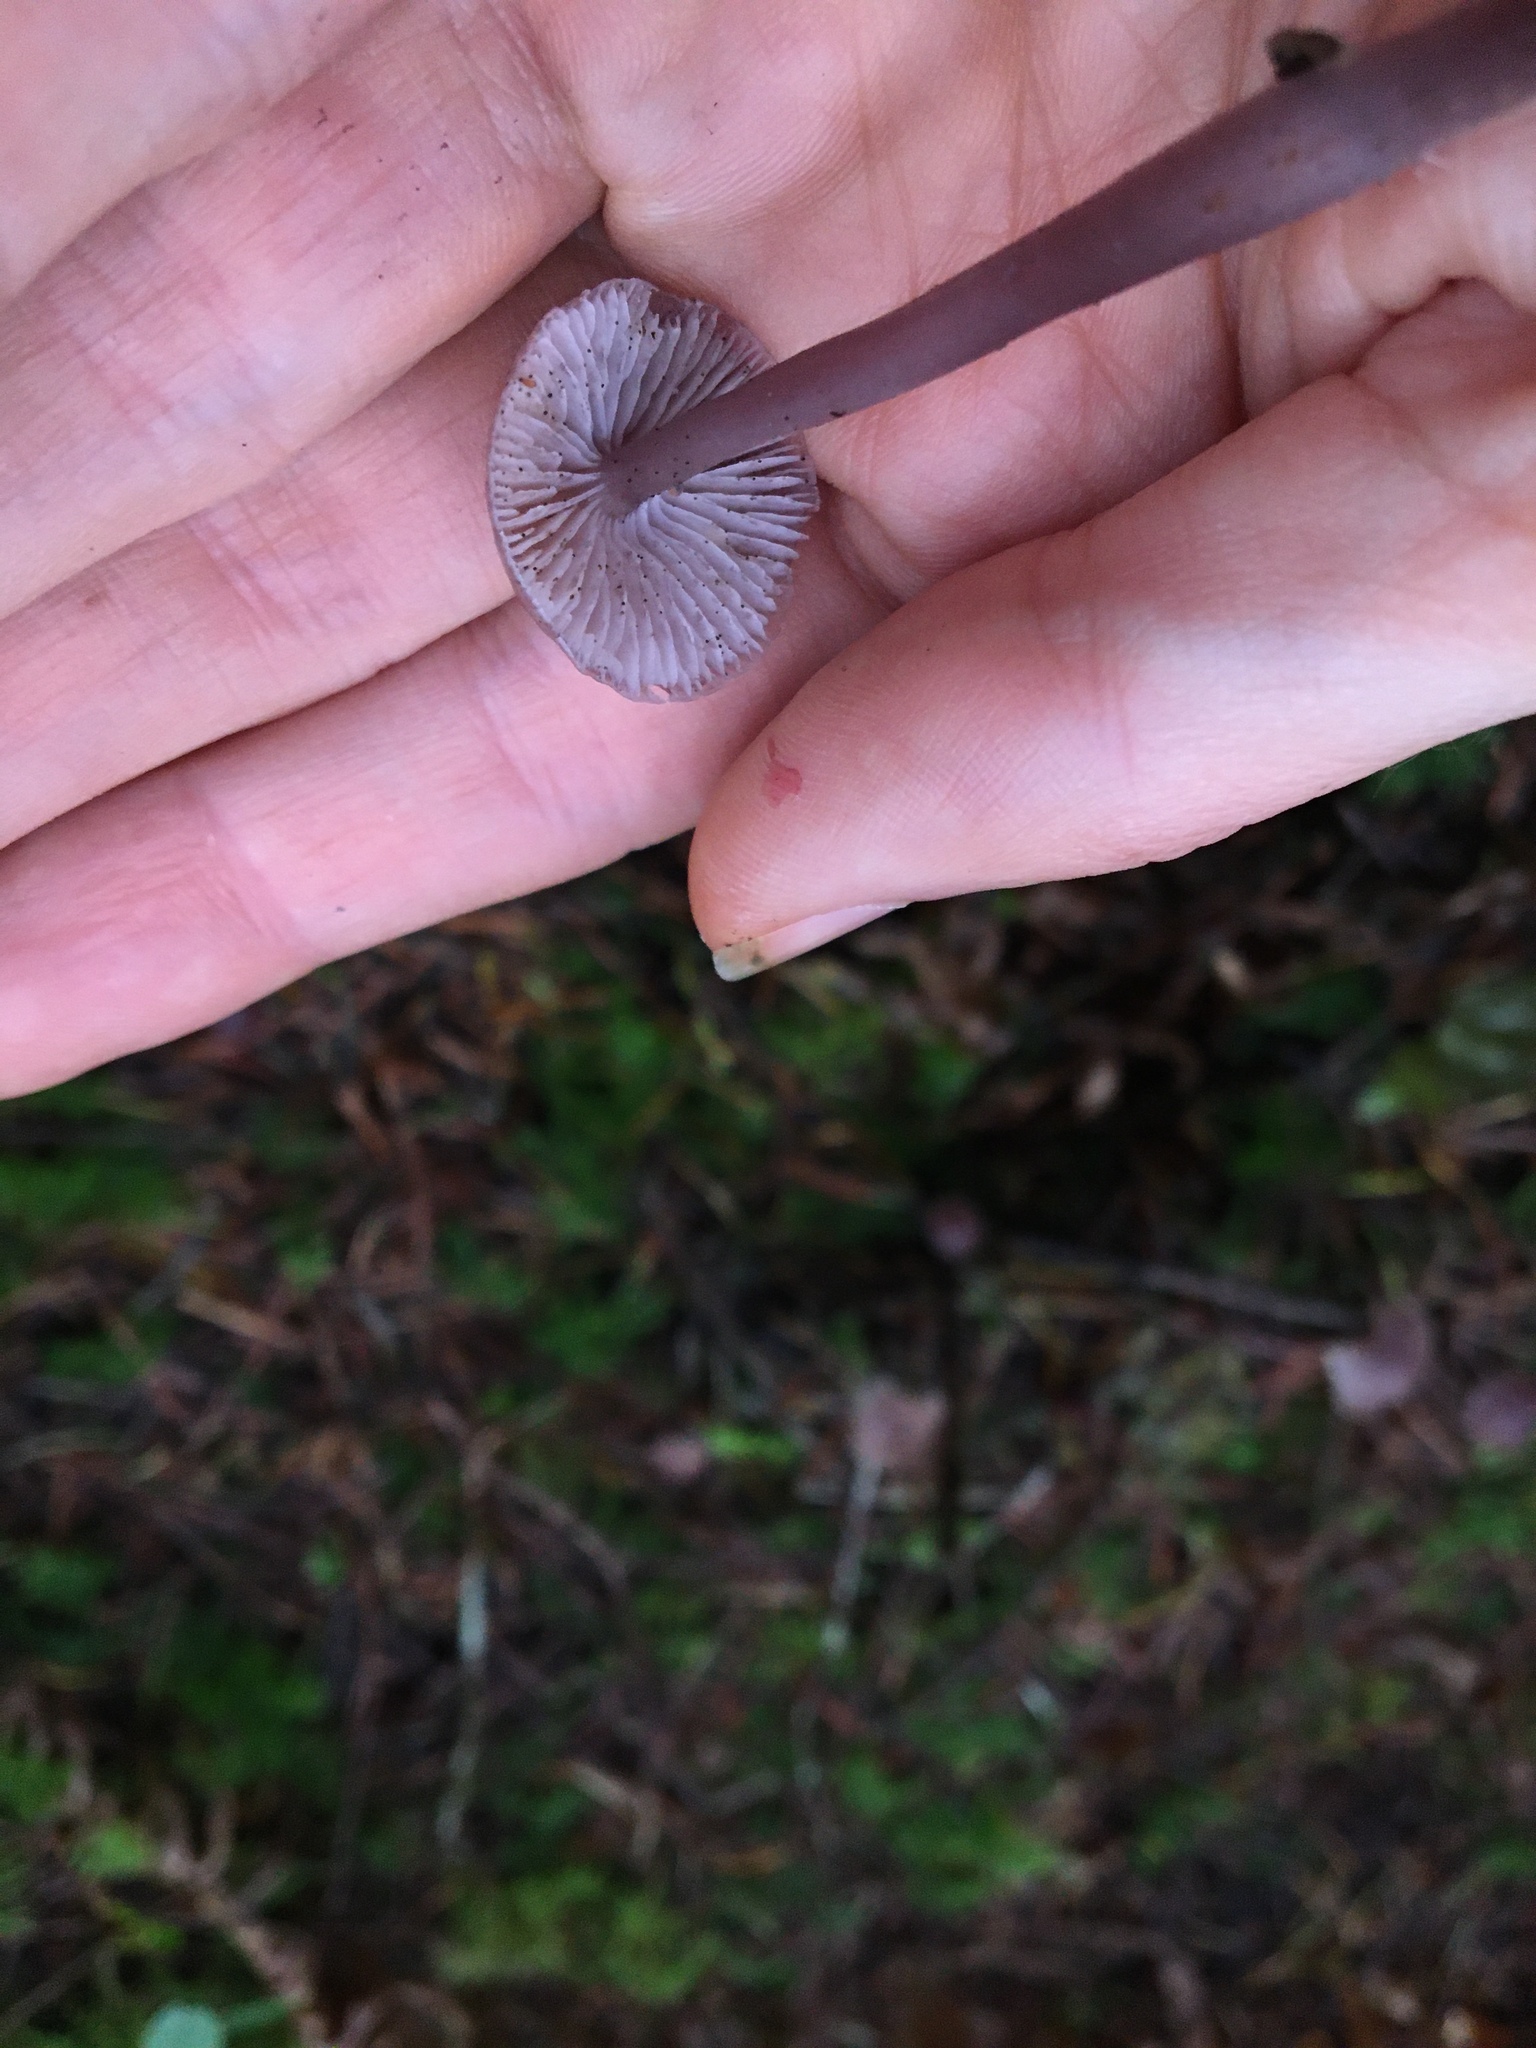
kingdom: Fungi
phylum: Basidiomycota
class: Agaricomycetes
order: Agaricales
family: Mycenaceae
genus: Mycena
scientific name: Mycena pura
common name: Lilac bonnet
